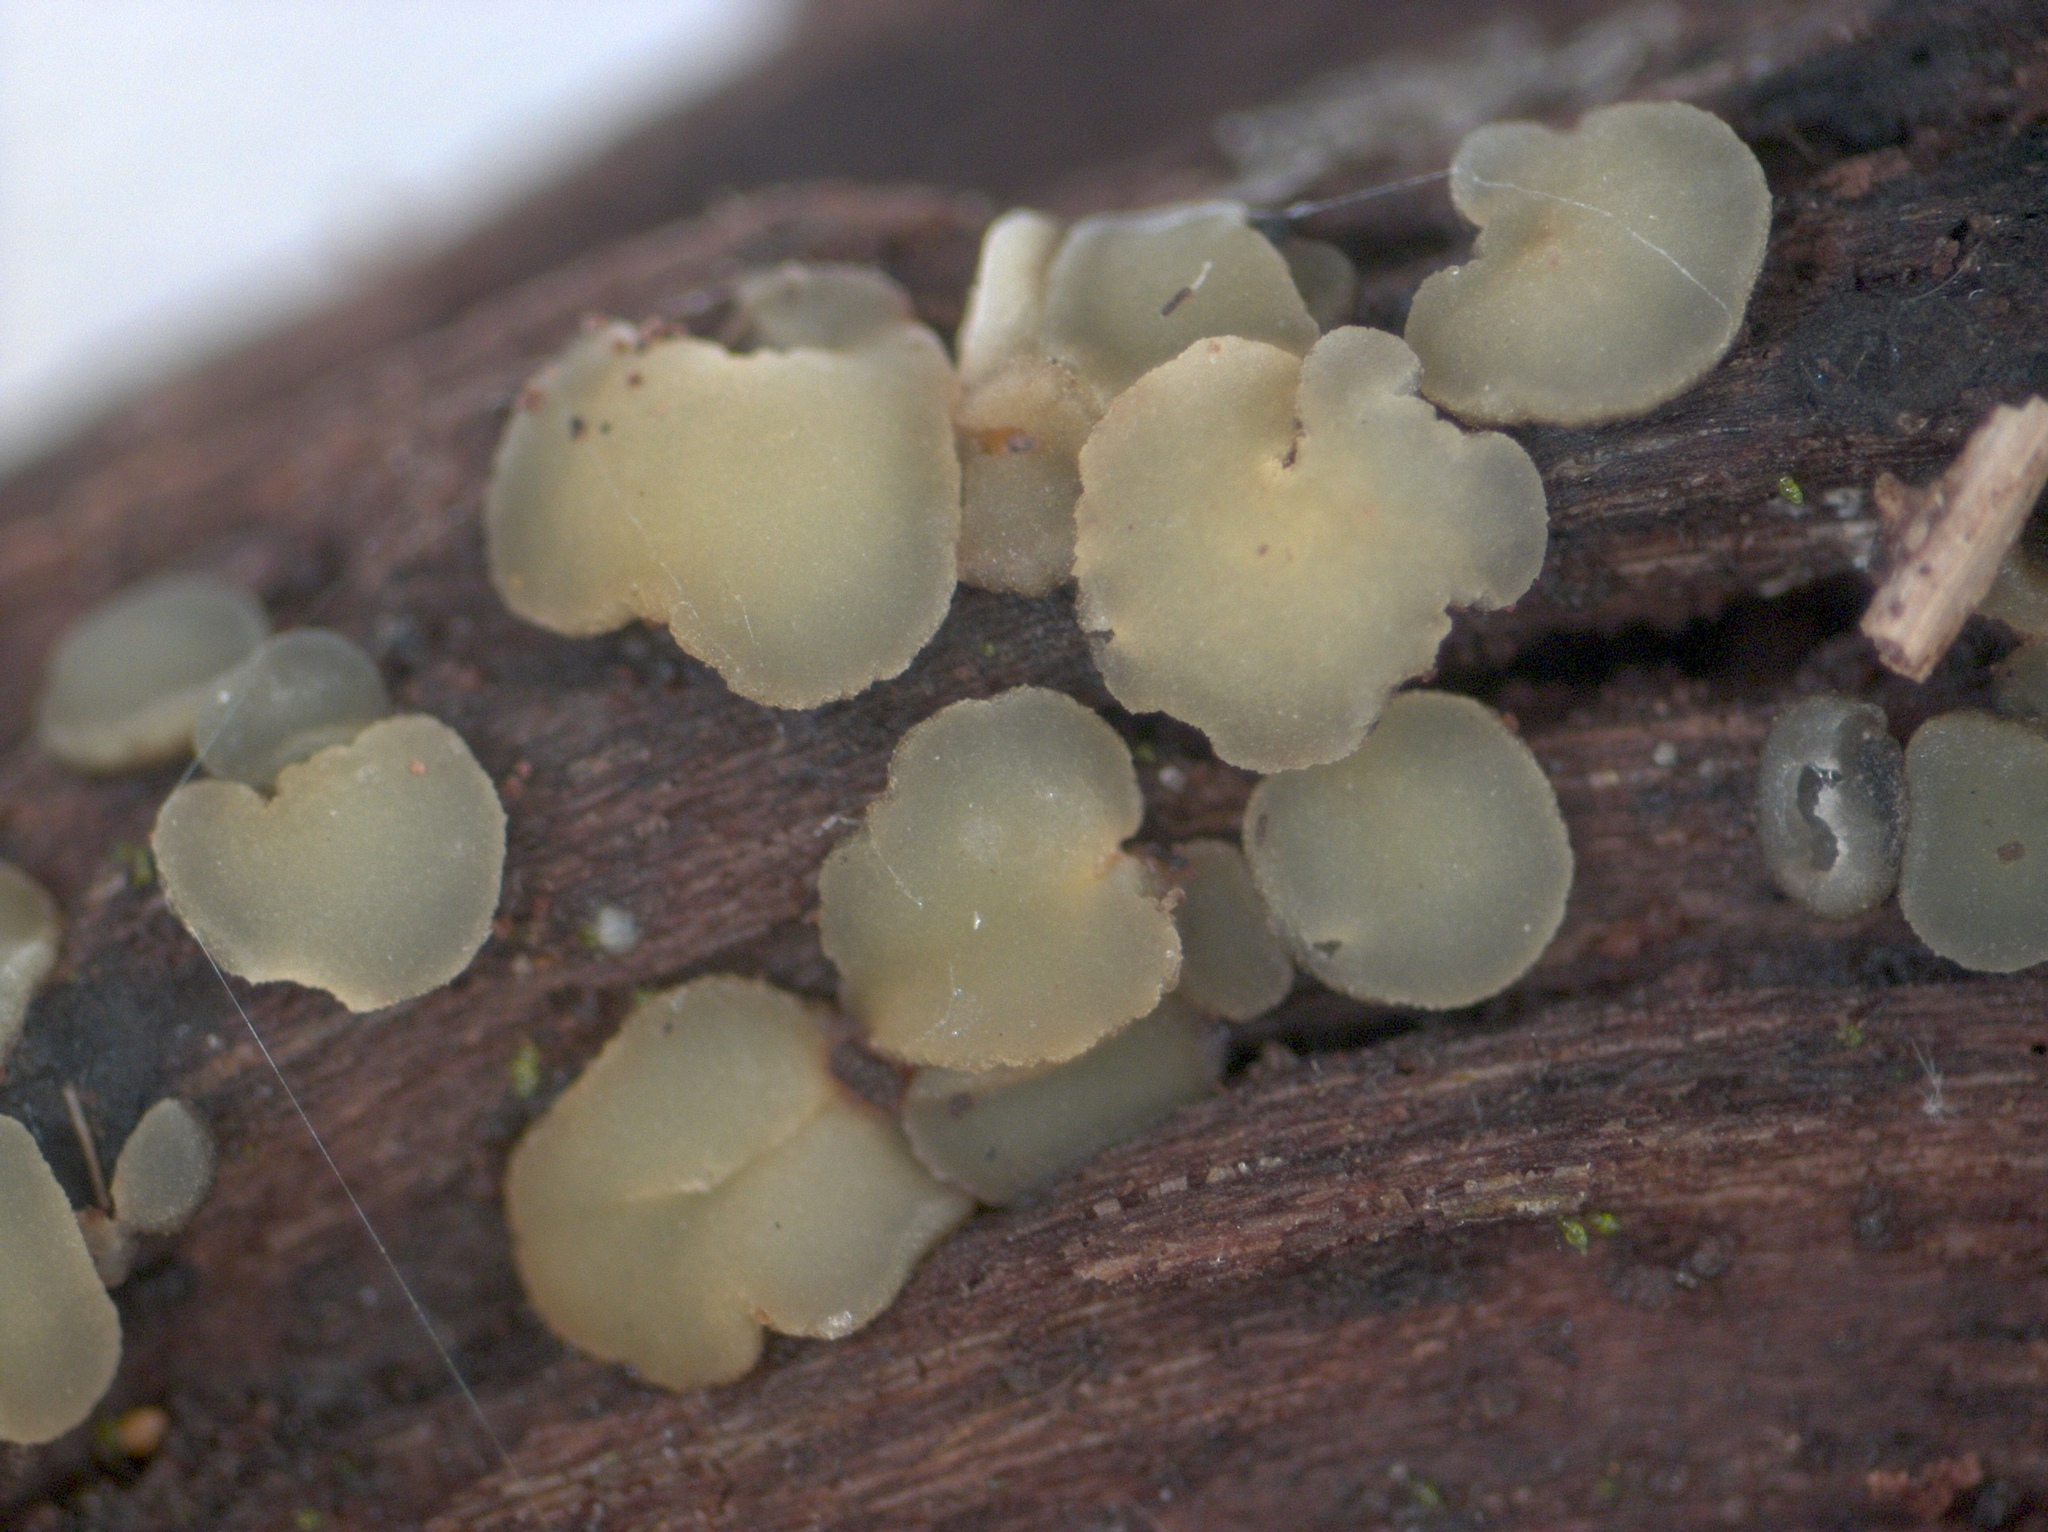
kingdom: Fungi
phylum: Ascomycota
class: Leotiomycetes
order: Helotiales
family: Mollisiaceae
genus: Mollisia
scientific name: Mollisia ventosa
